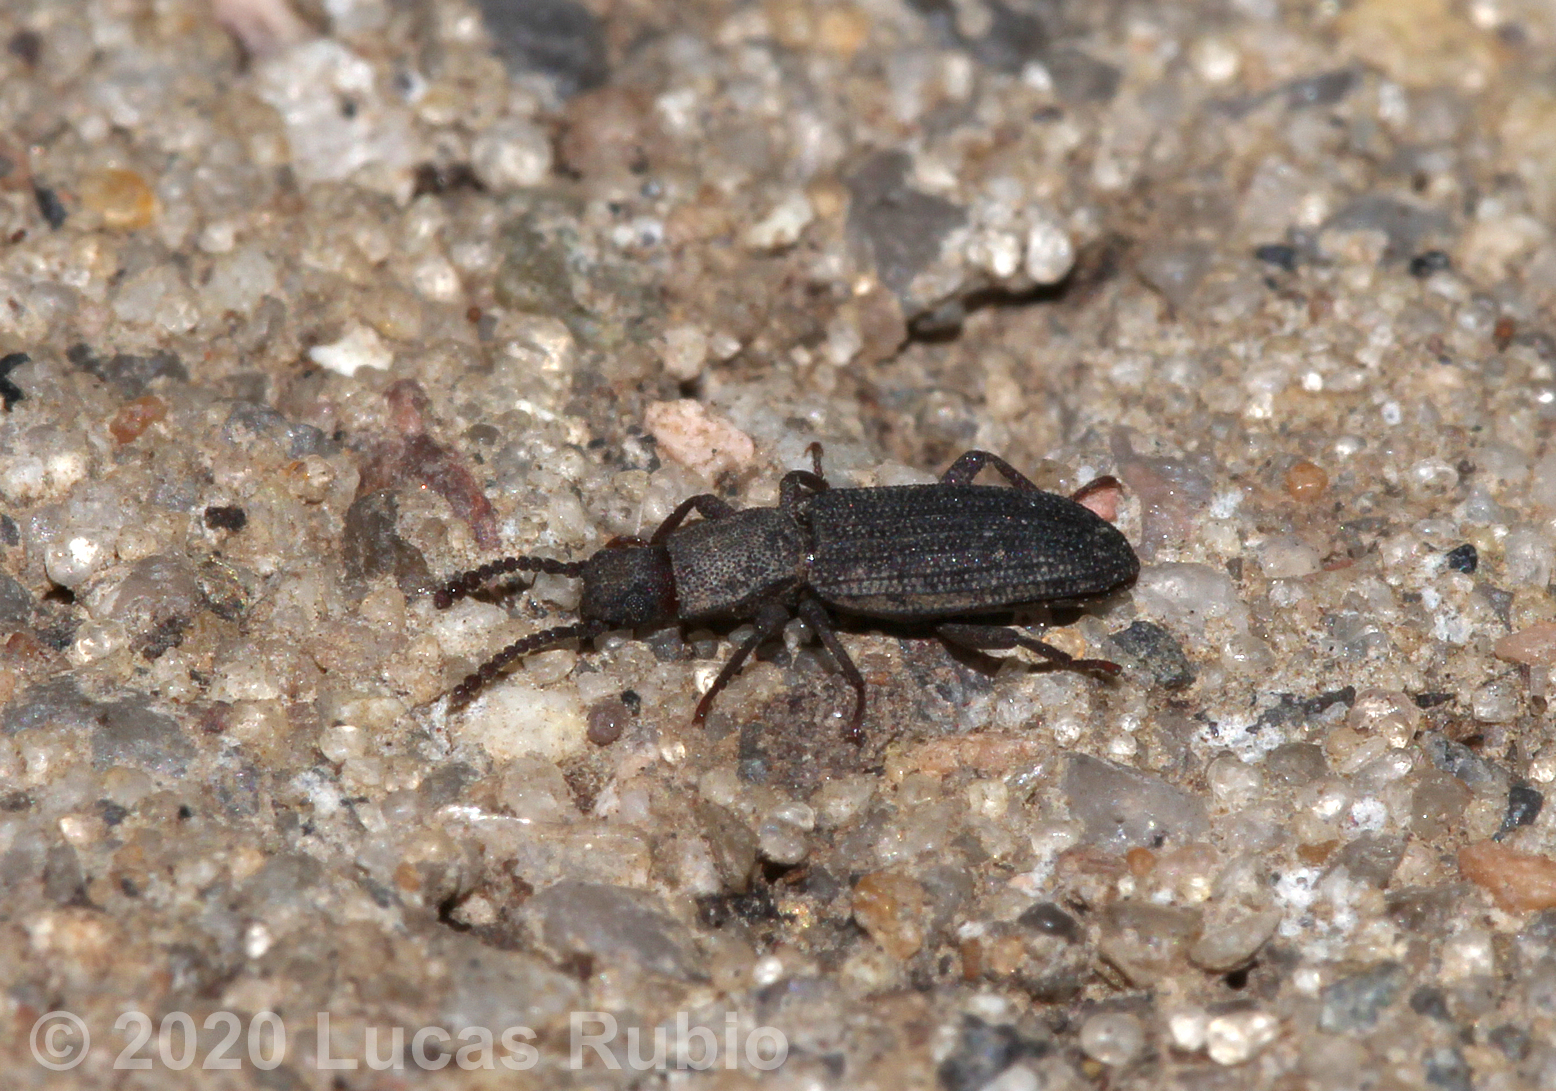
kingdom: Animalia
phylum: Arthropoda
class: Insecta
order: Coleoptera
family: Tenebrionidae
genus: Rhypasma
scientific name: Rhypasma
